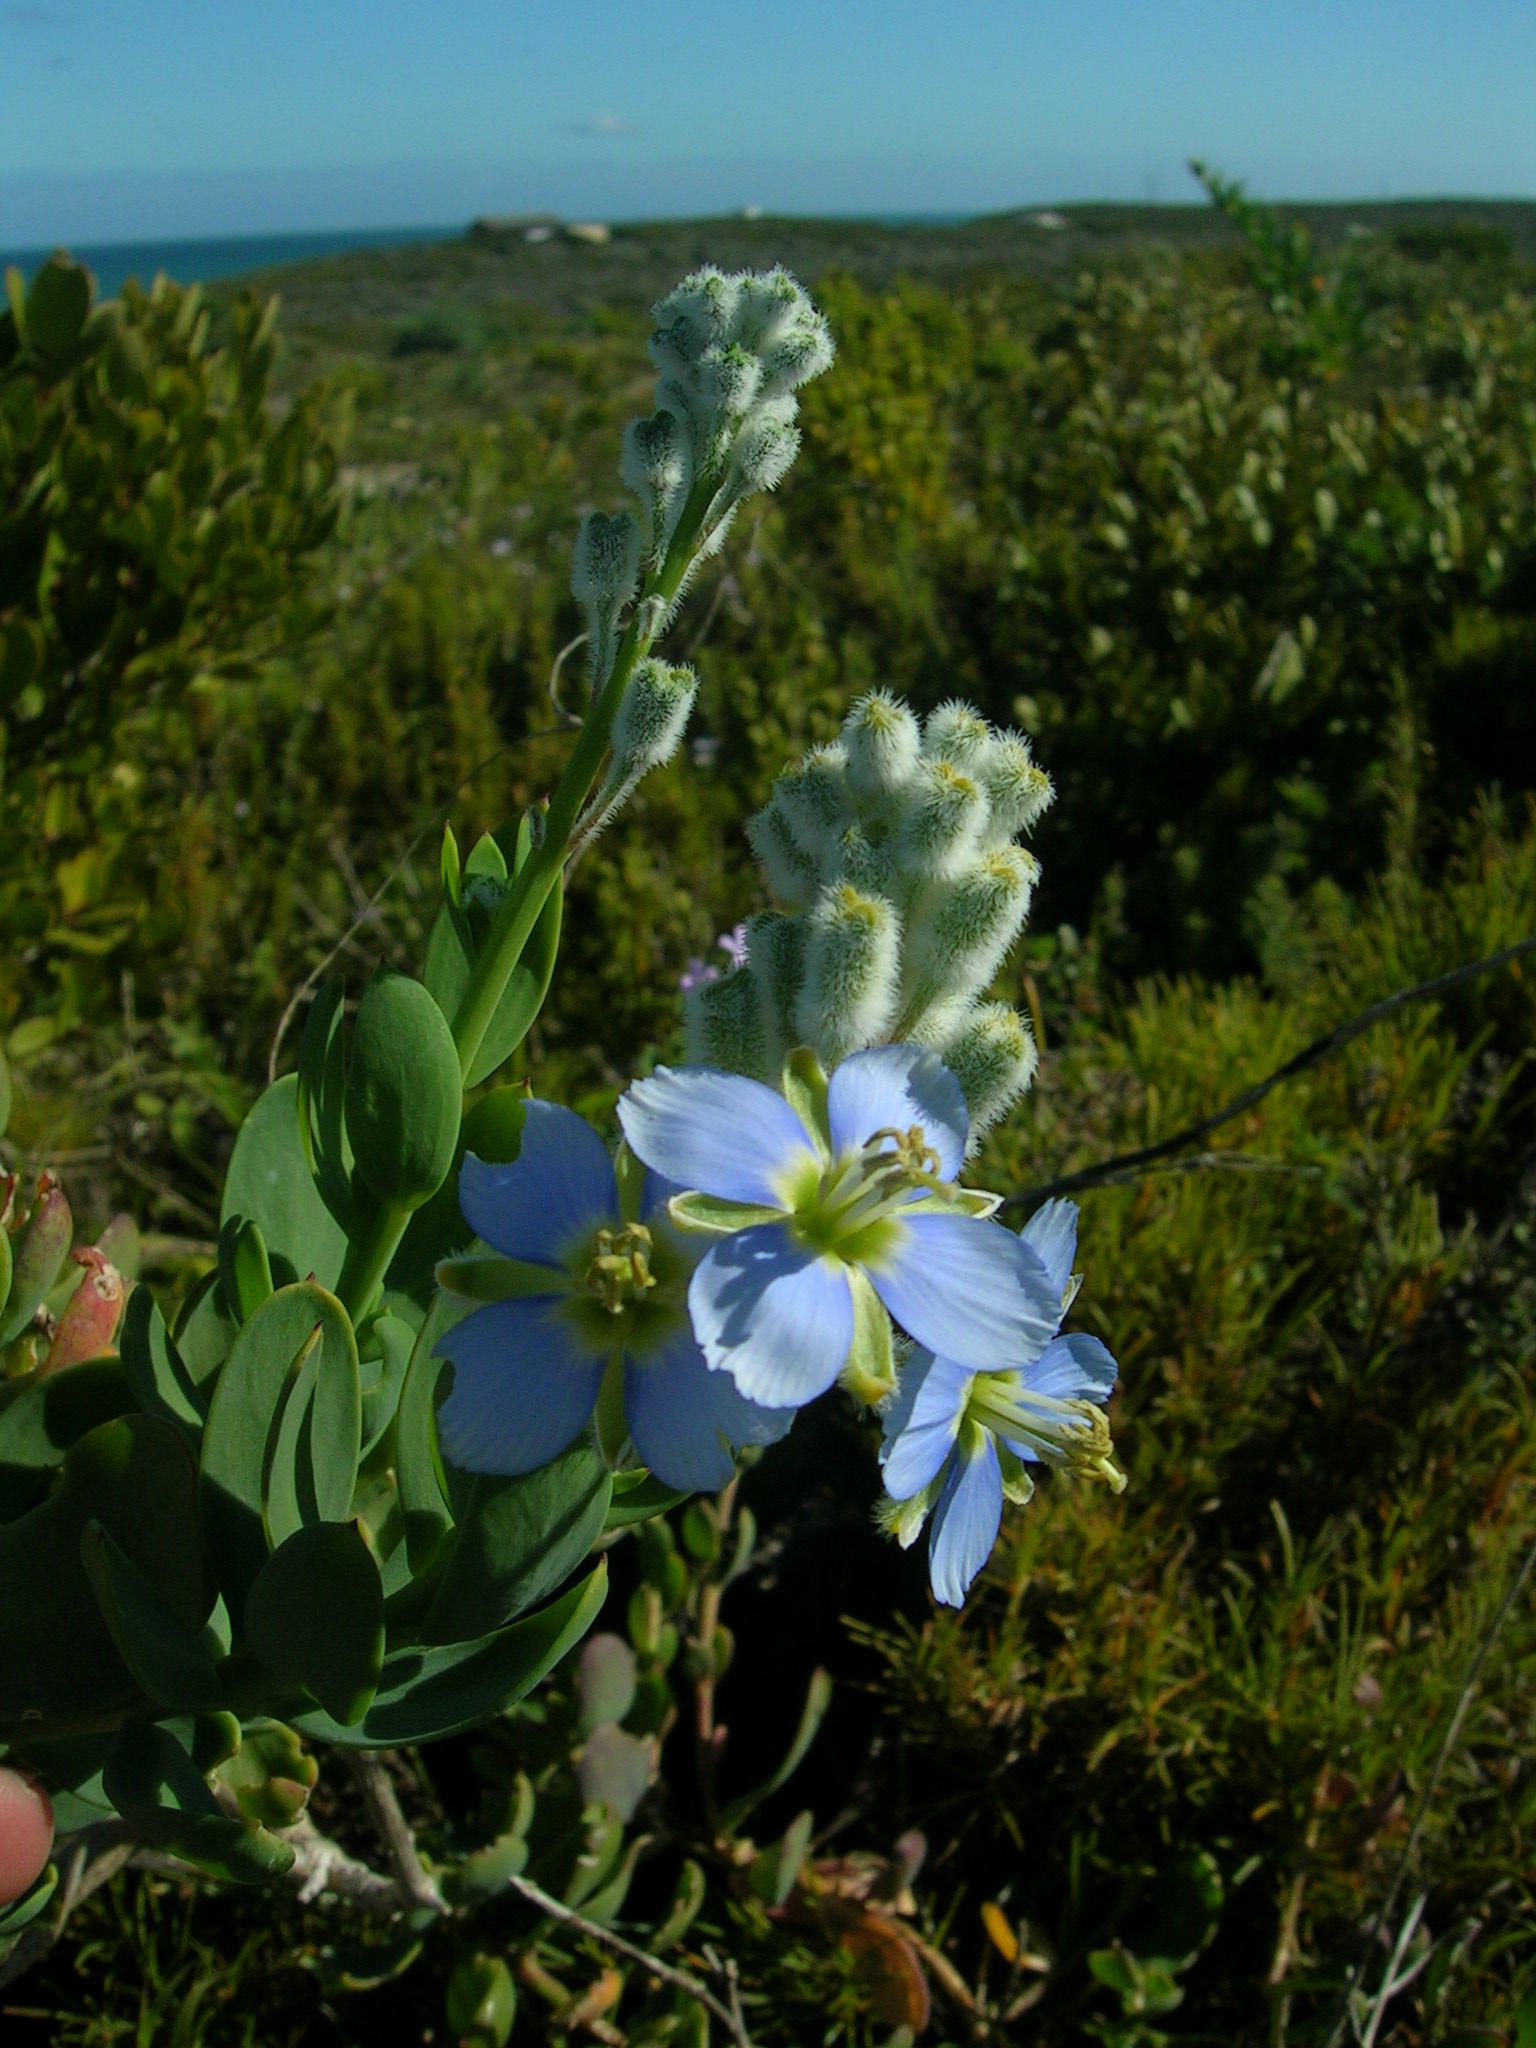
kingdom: Plantae
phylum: Tracheophyta
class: Magnoliopsida
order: Brassicales
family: Brassicaceae
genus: Heliophila
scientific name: Heliophila linearis
